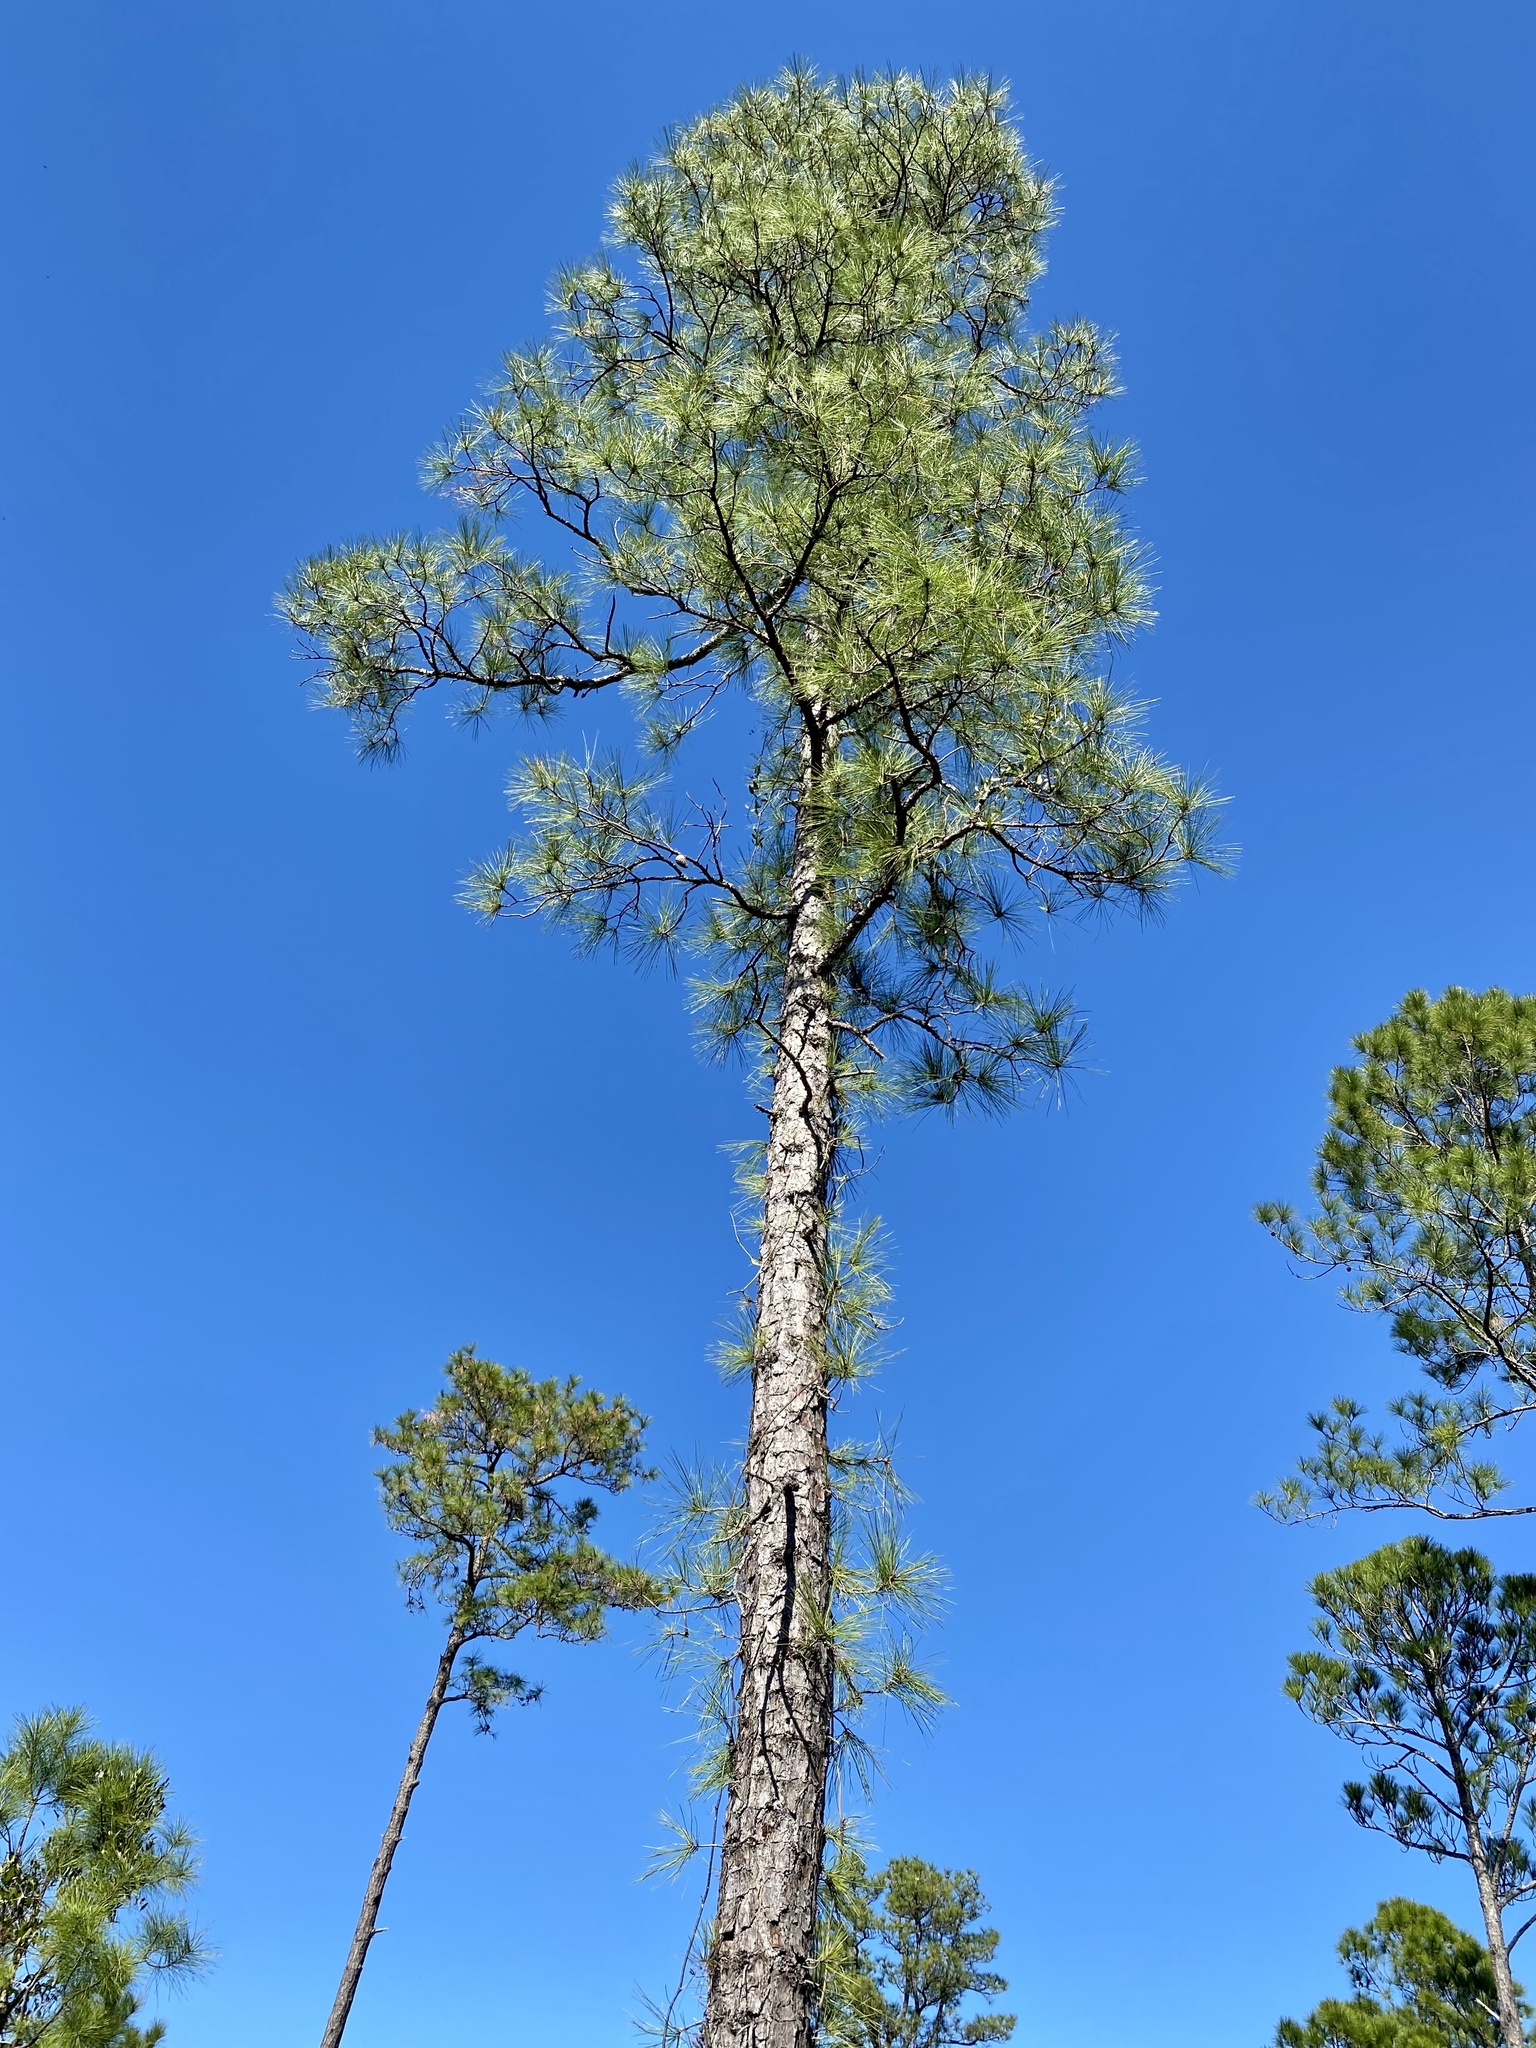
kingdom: Plantae
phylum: Tracheophyta
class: Pinopsida
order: Pinales
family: Pinaceae
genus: Pinus
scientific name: Pinus serotina
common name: Marsh pine
